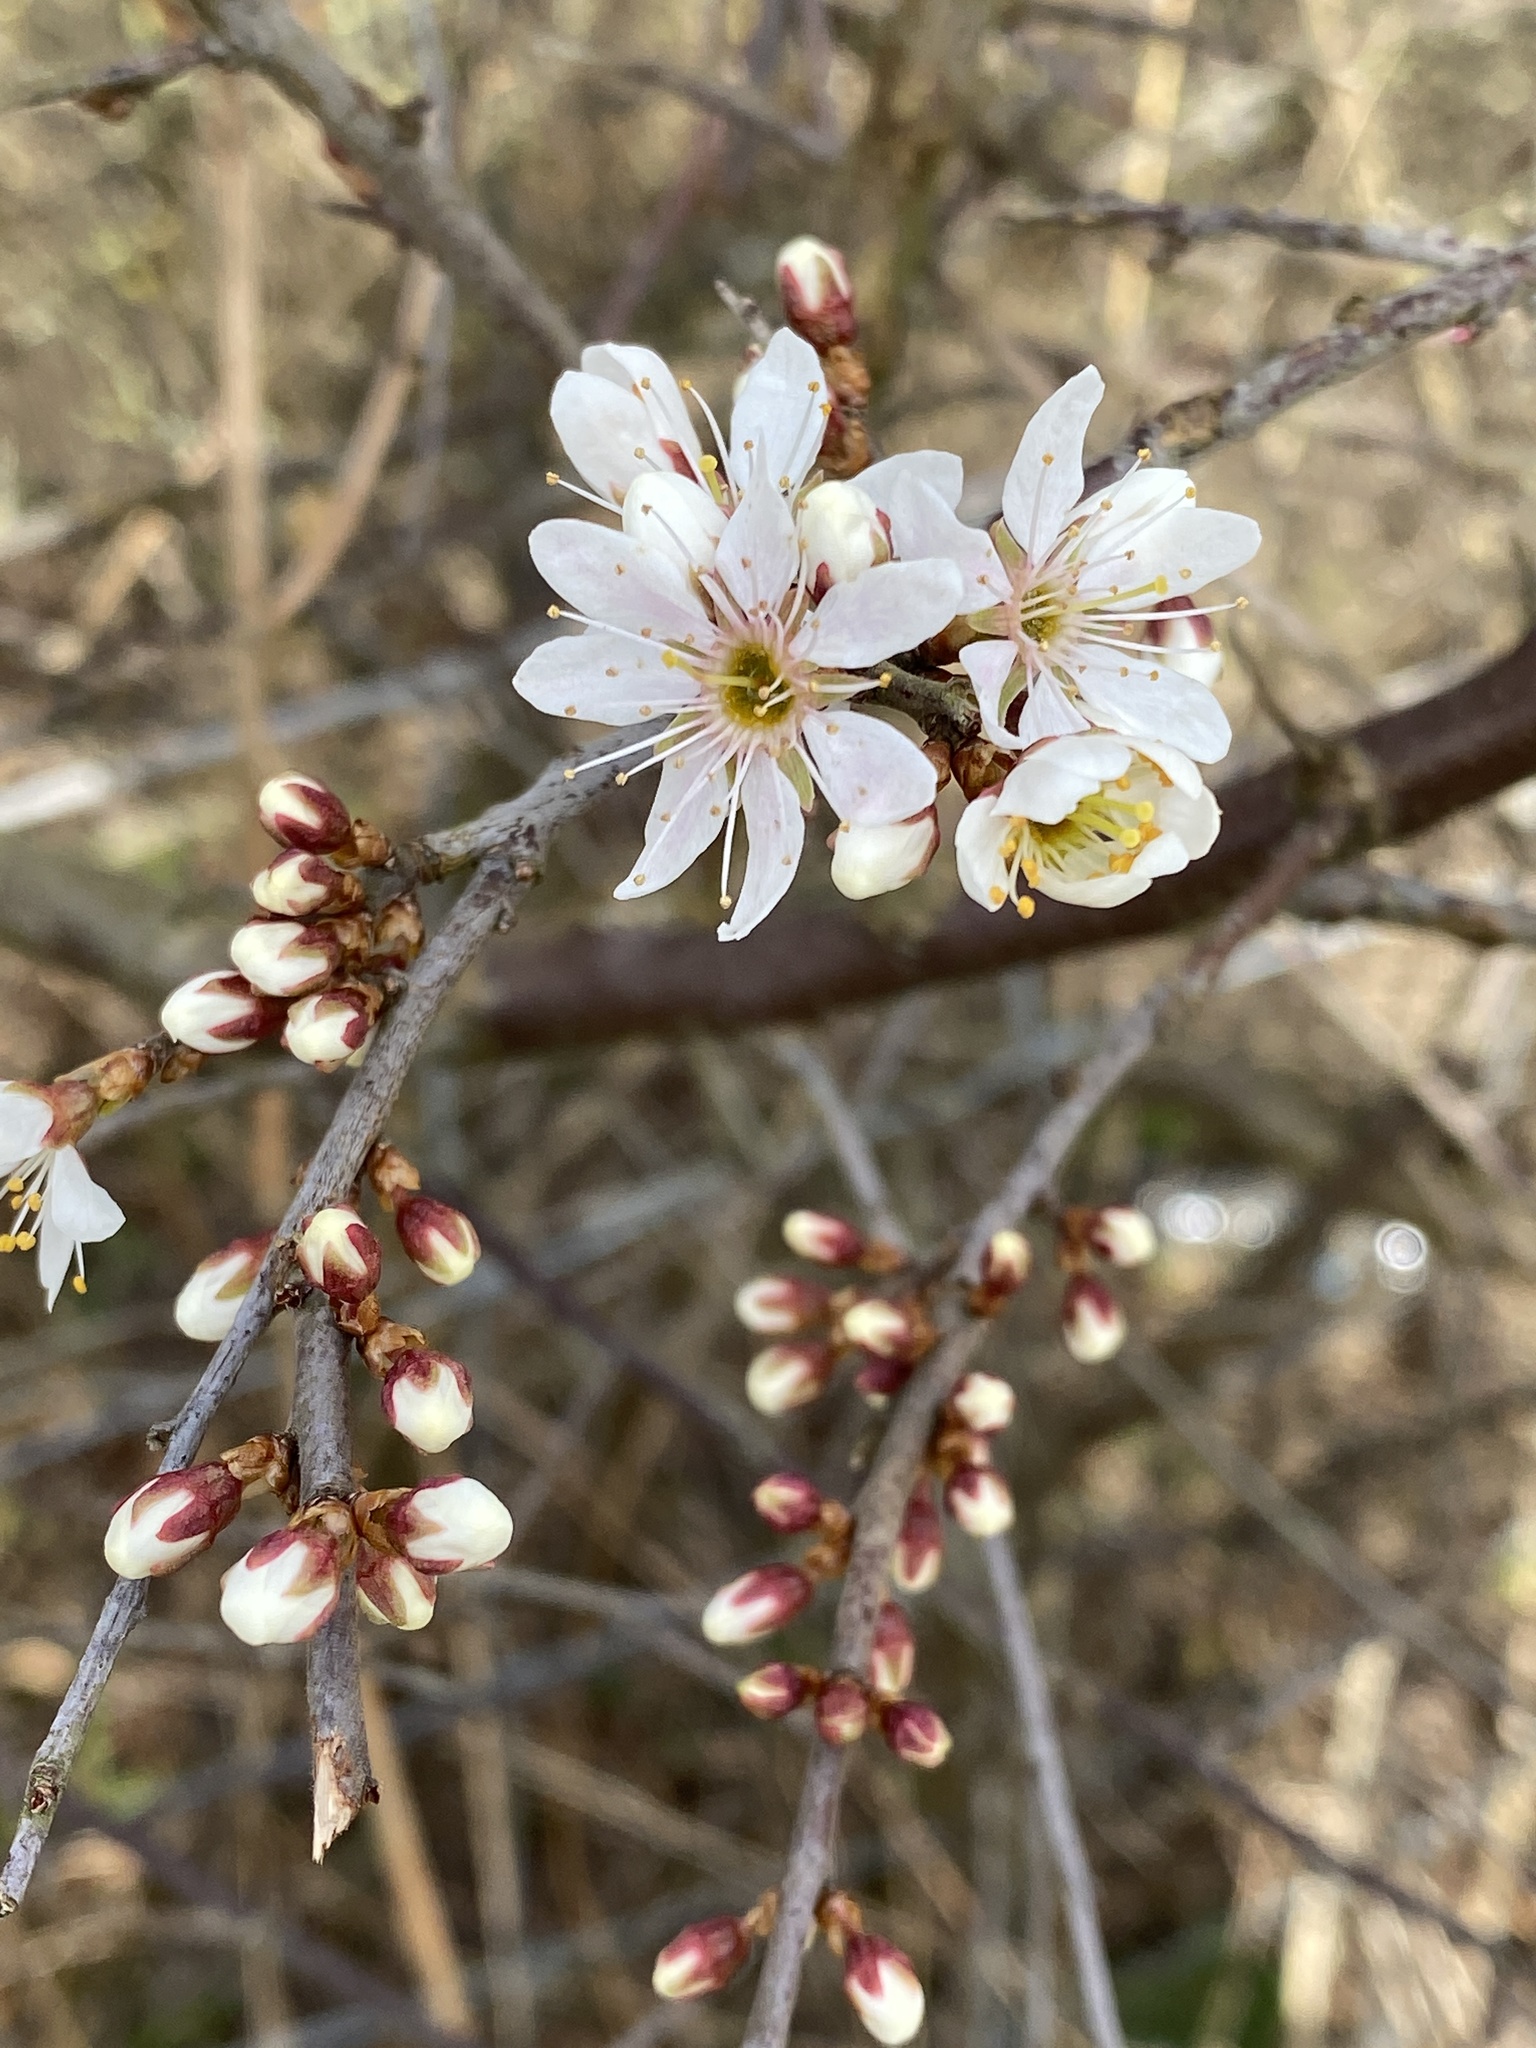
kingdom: Plantae
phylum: Tracheophyta
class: Magnoliopsida
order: Rosales
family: Rosaceae
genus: Prunus
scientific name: Prunus spinosa
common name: Blackthorn
